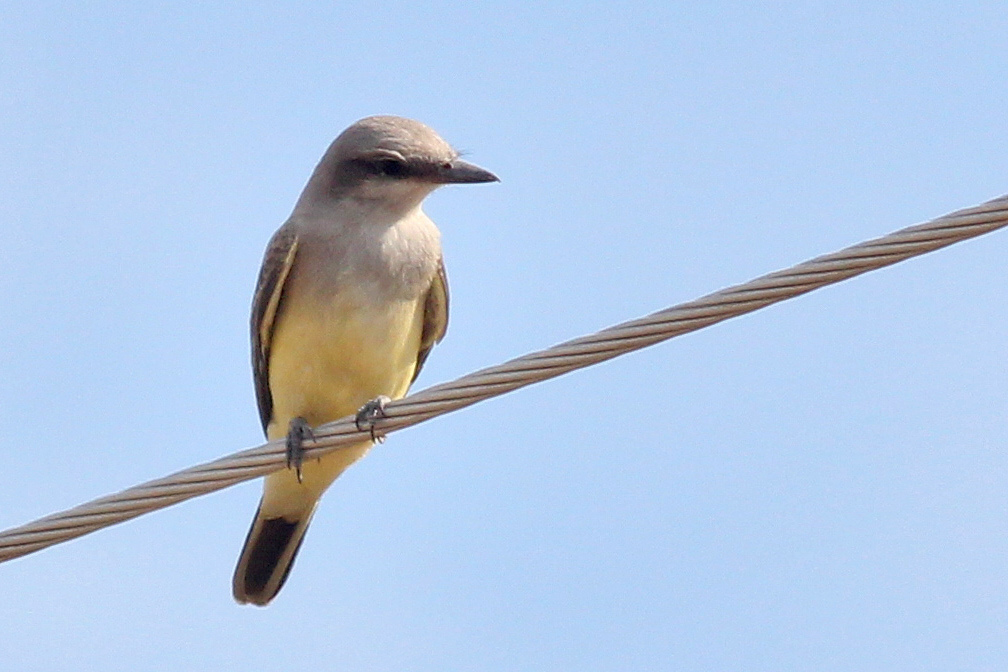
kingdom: Animalia
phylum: Chordata
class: Aves
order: Passeriformes
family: Tyrannidae
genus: Tyrannus
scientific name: Tyrannus verticalis
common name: Western kingbird
